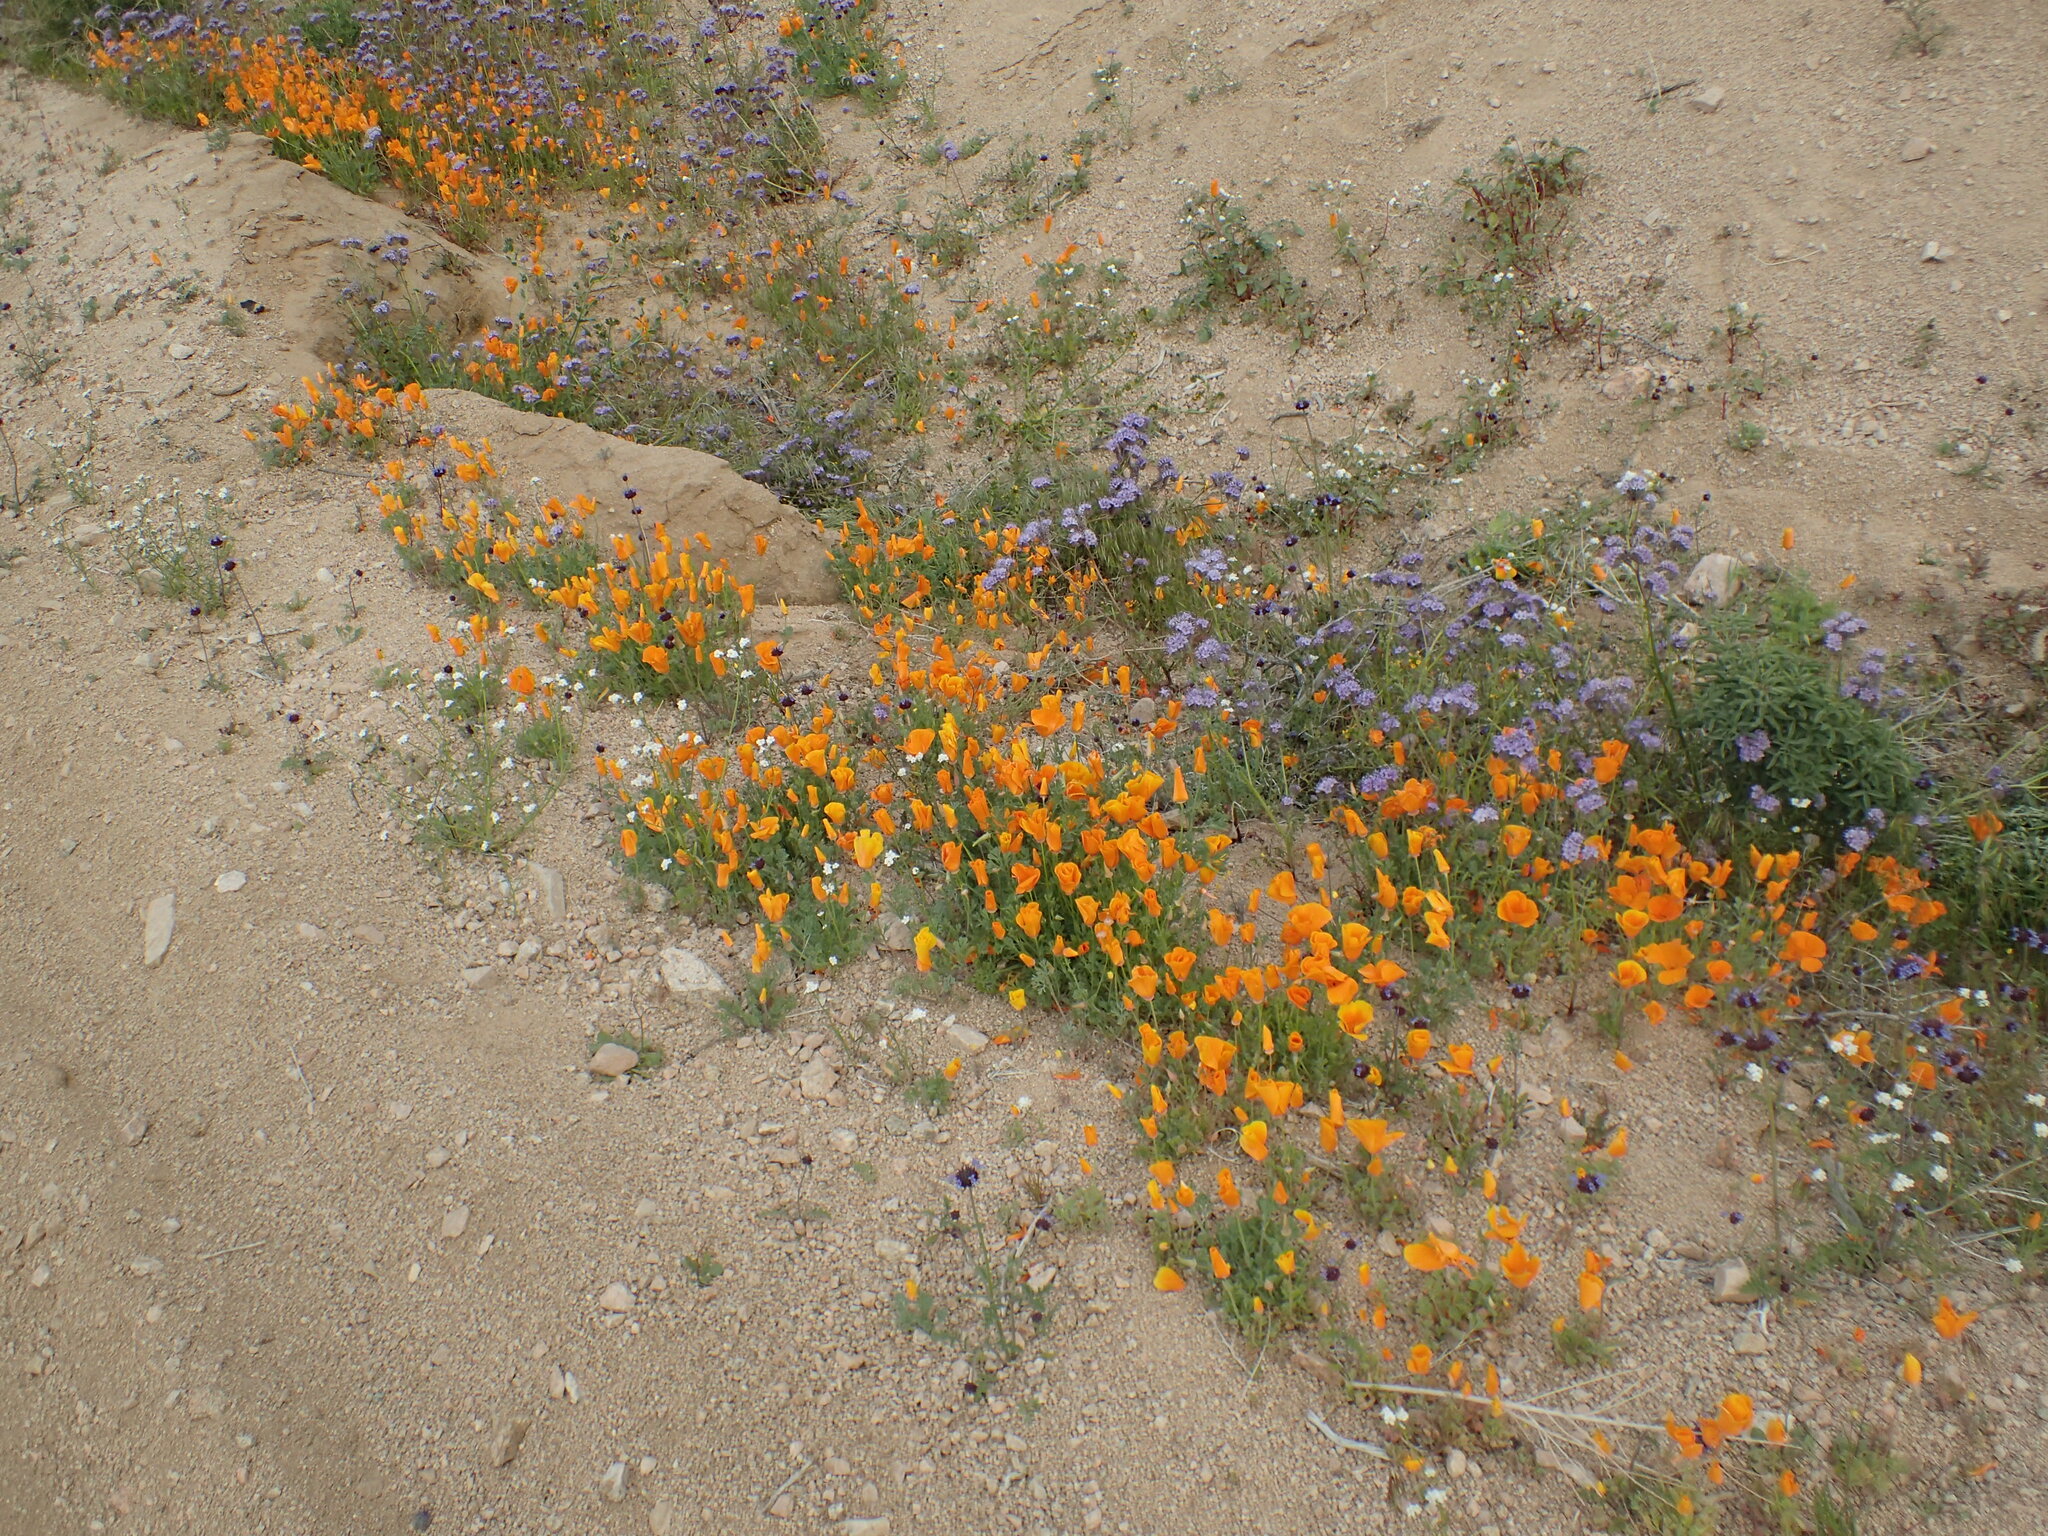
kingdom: Plantae
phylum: Tracheophyta
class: Magnoliopsida
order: Ranunculales
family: Papaveraceae
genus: Eschscholzia
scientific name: Eschscholzia californica
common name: California poppy
